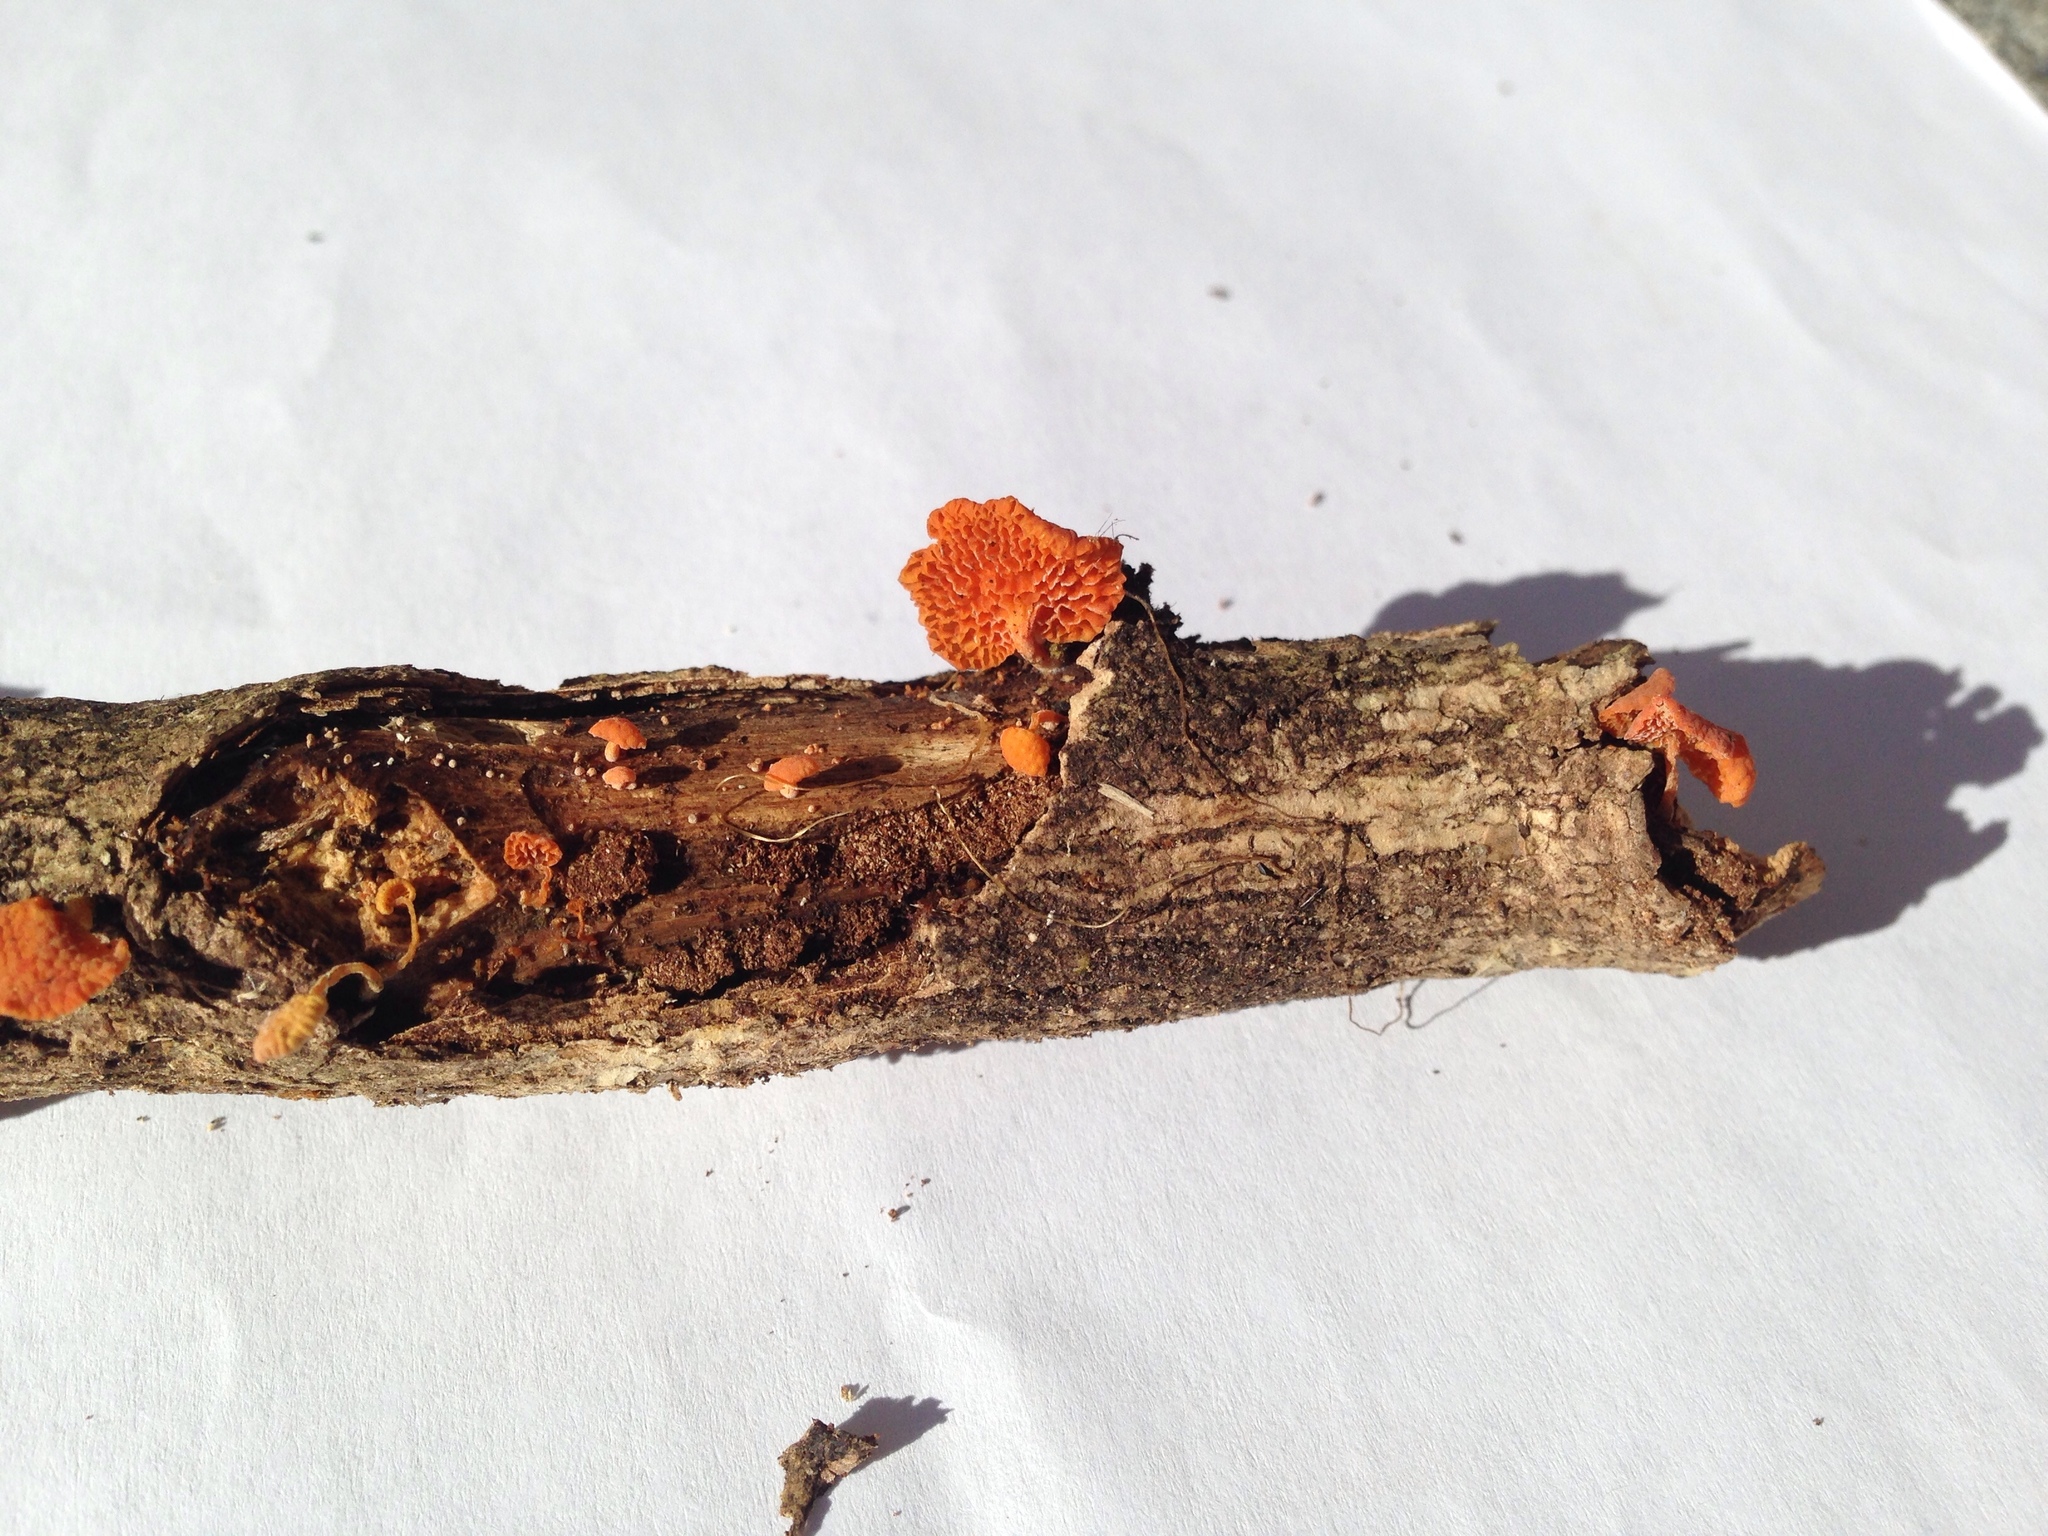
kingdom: Fungi
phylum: Basidiomycota
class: Agaricomycetes
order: Agaricales
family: Mycenaceae
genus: Favolaschia
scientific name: Favolaschia claudopus
